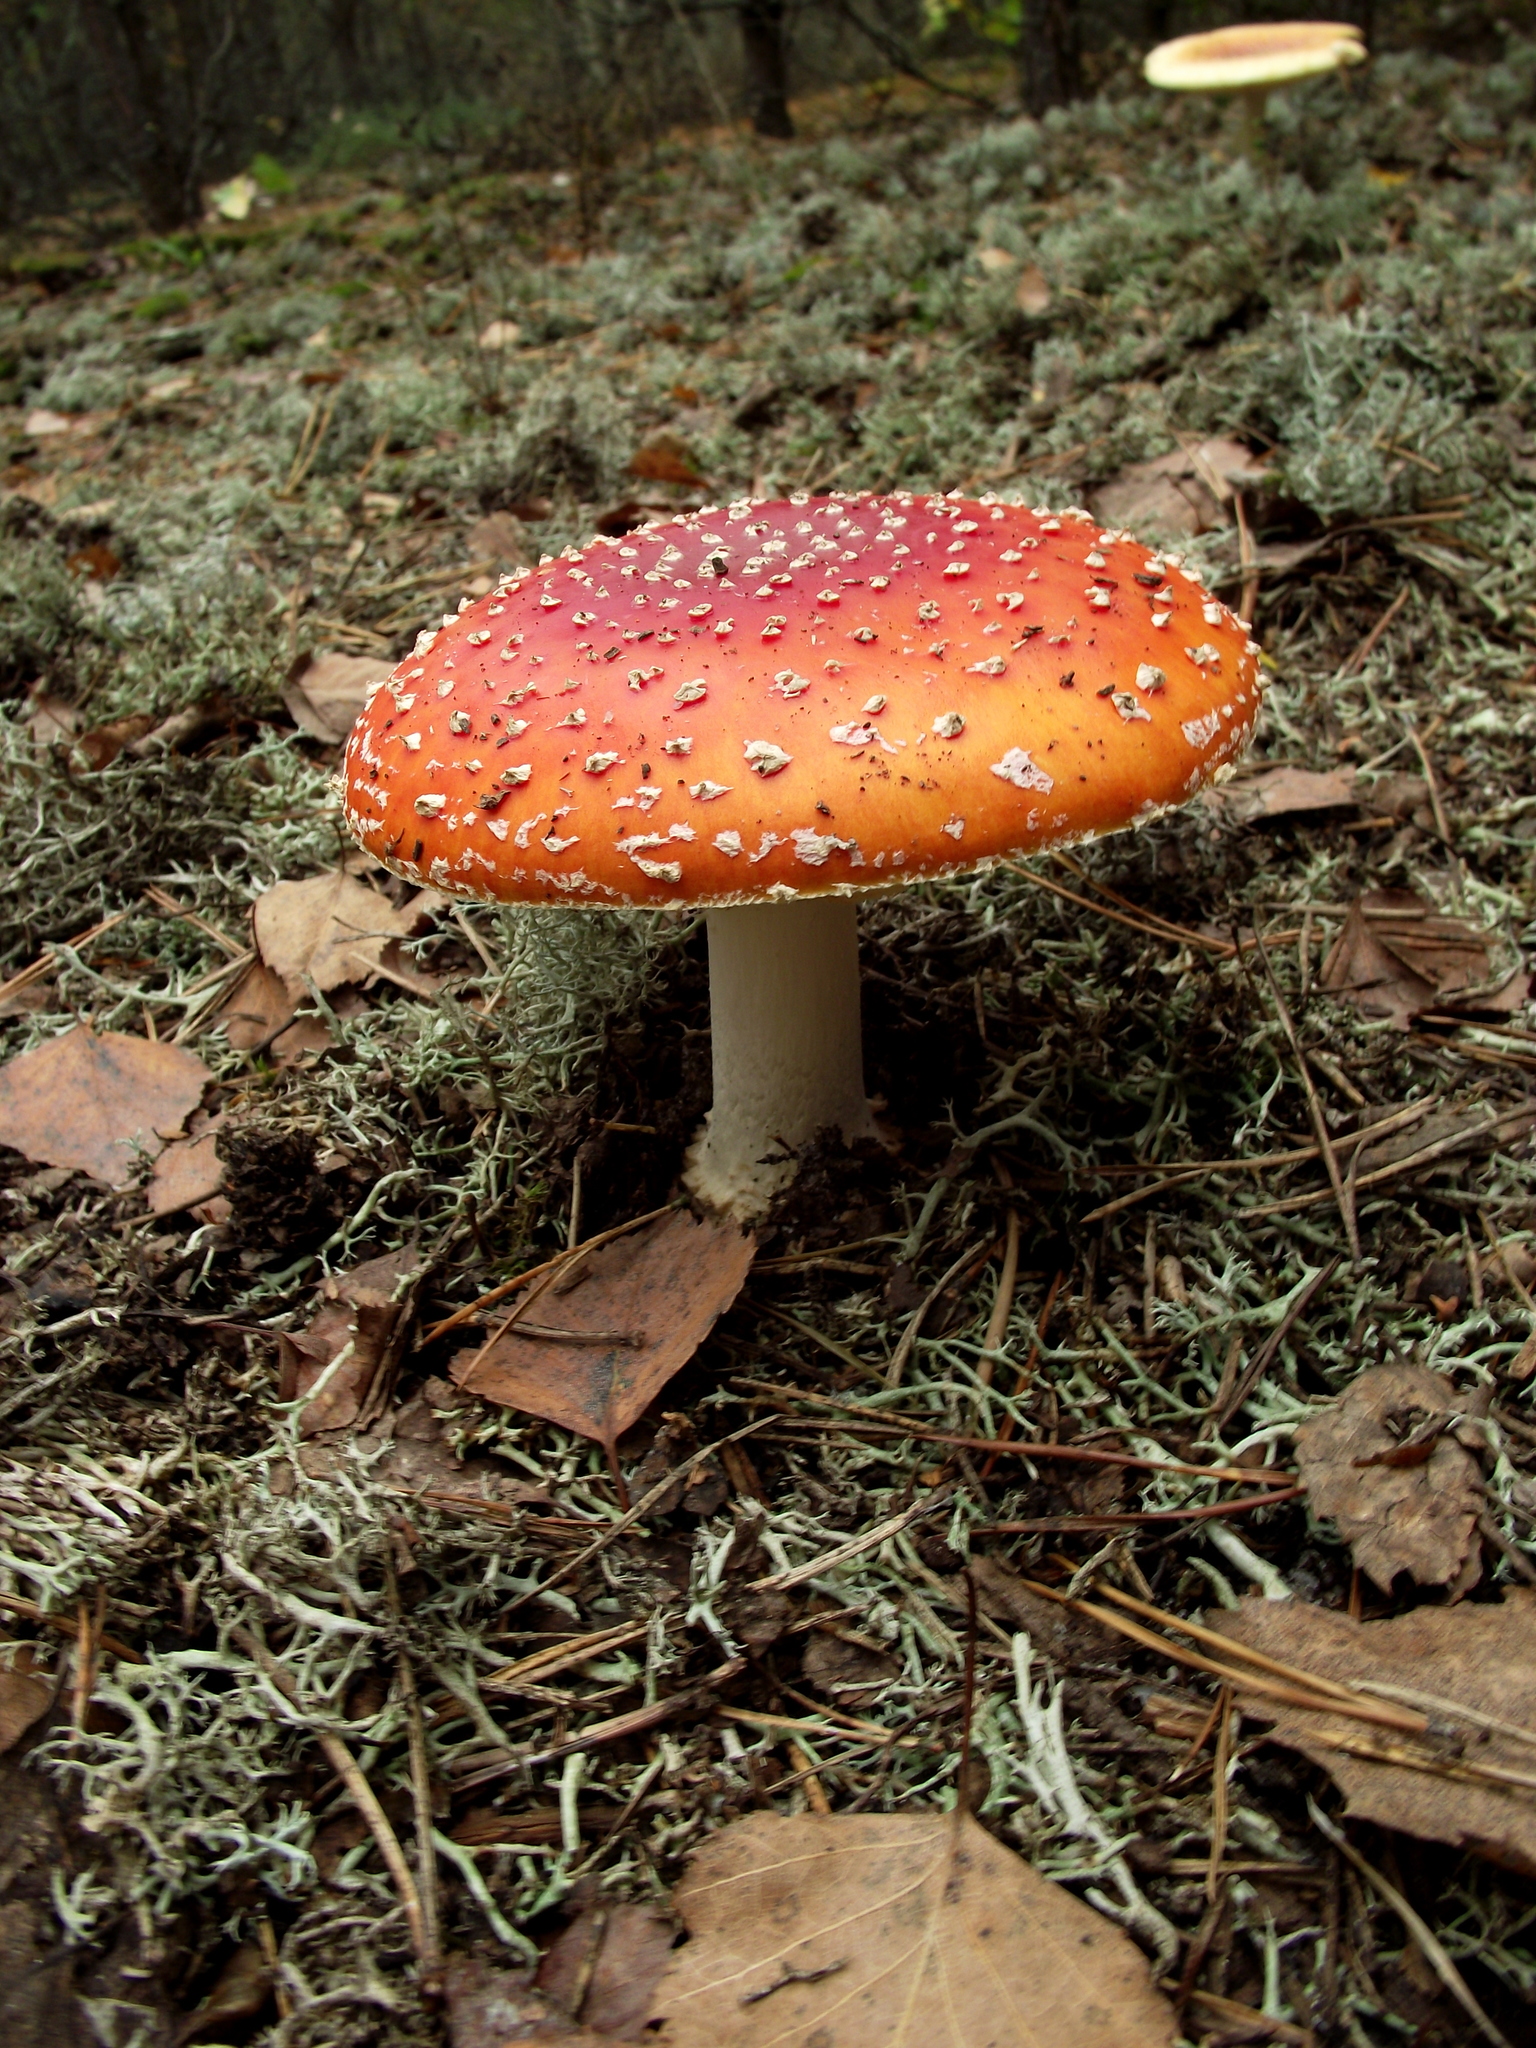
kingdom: Fungi
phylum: Basidiomycota
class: Agaricomycetes
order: Agaricales
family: Amanitaceae
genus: Amanita
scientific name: Amanita muscaria
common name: Fly agaric
